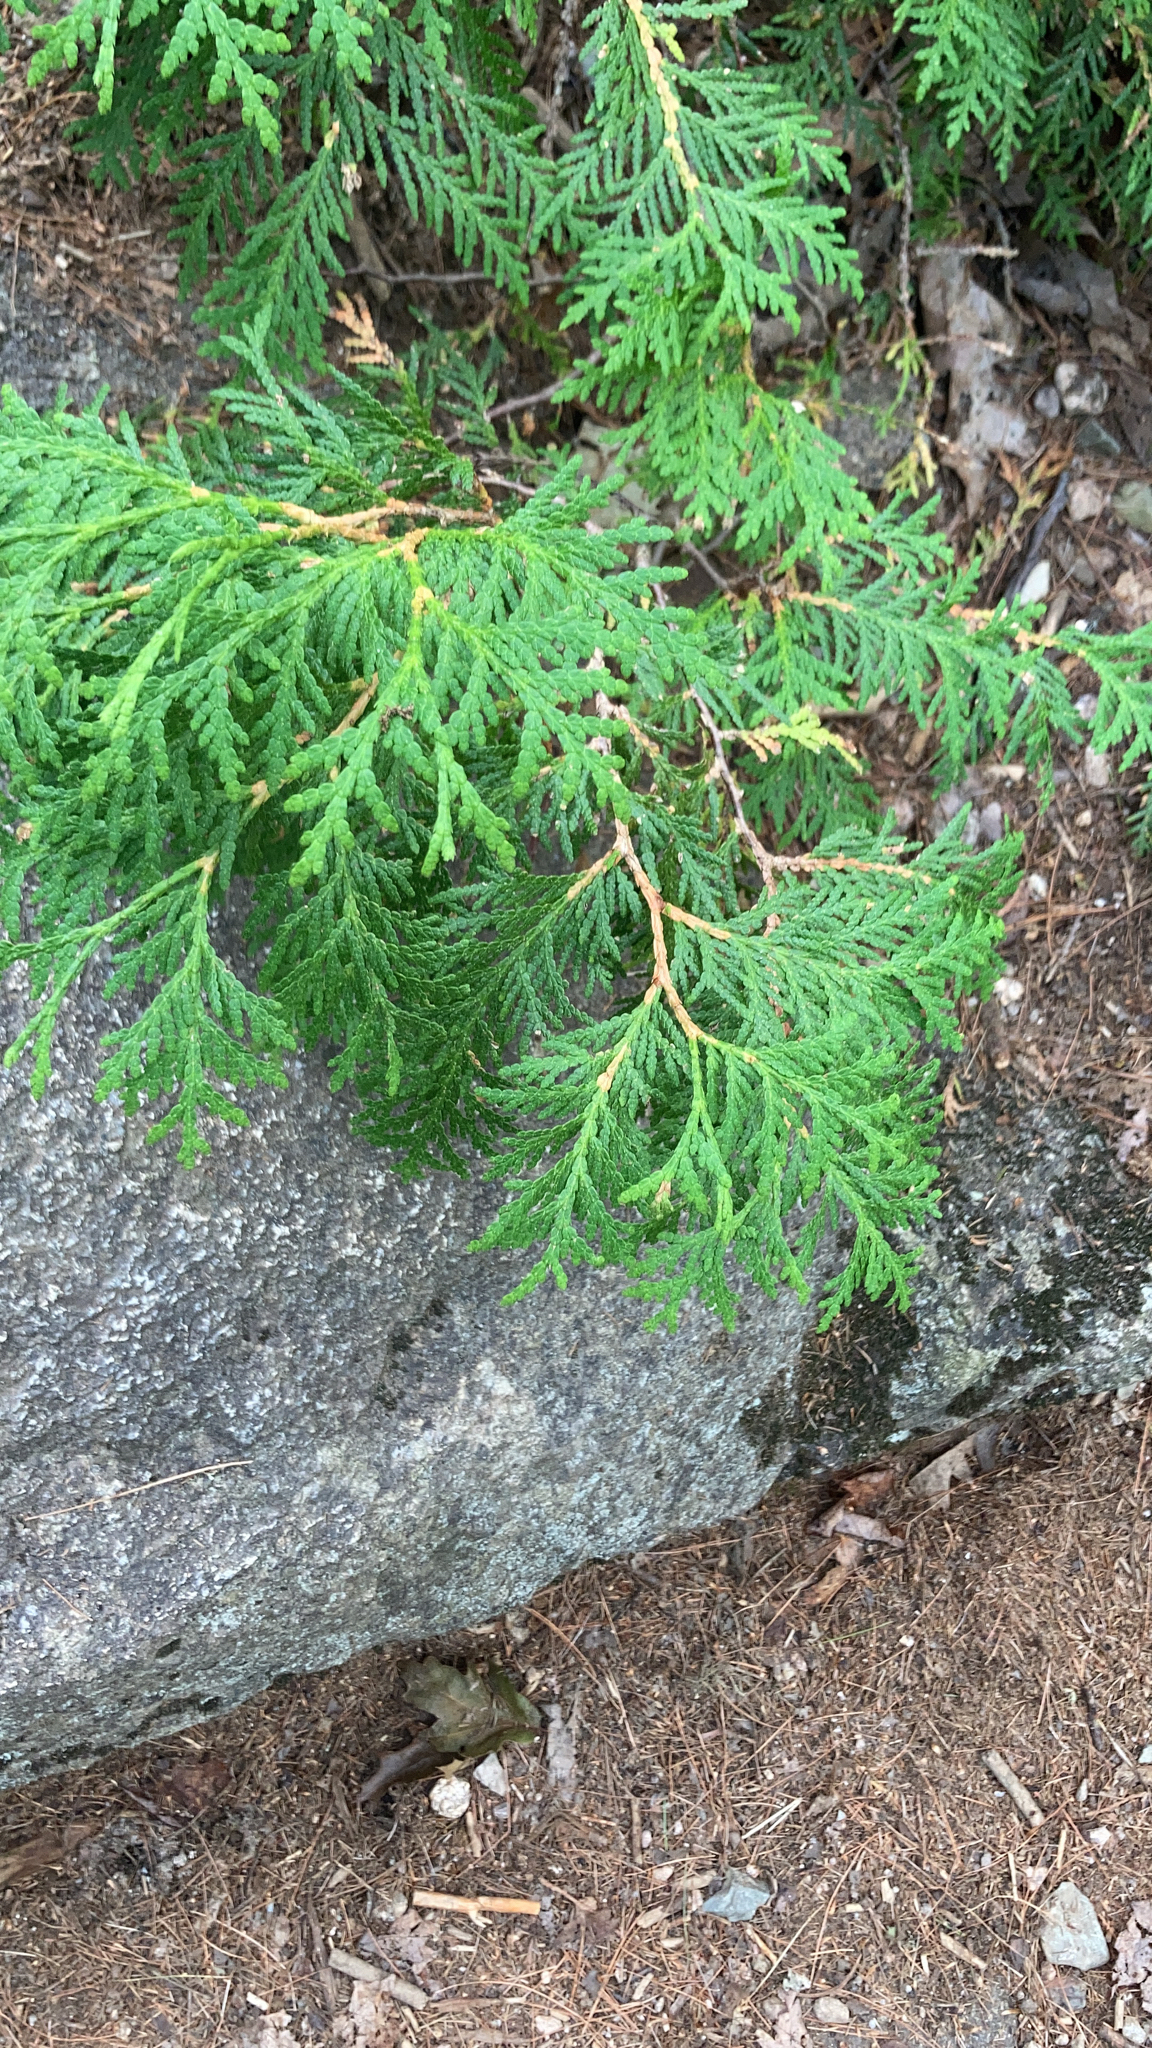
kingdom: Plantae
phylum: Tracheophyta
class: Pinopsida
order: Pinales
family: Cupressaceae
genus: Thuja
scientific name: Thuja occidentalis
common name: Northern white-cedar
